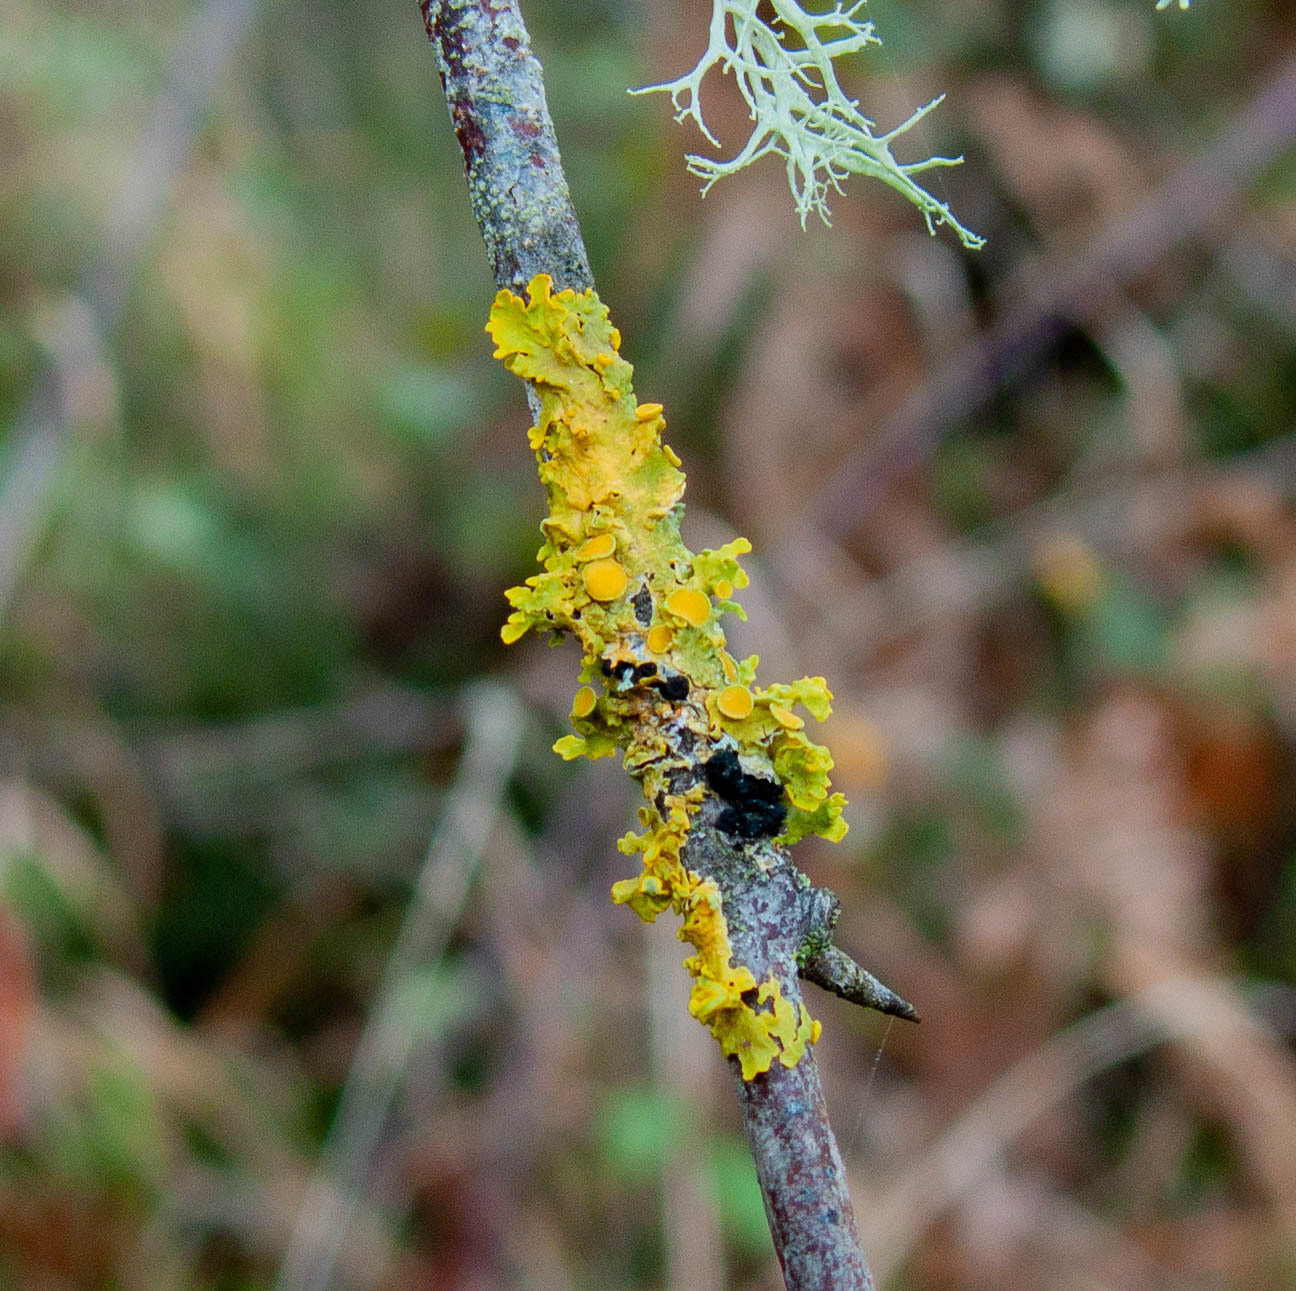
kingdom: Fungi
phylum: Ascomycota
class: Lecanoromycetes
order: Teloschistales
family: Teloschistaceae
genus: Xanthoria
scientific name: Xanthoria parietina
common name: Common orange lichen
